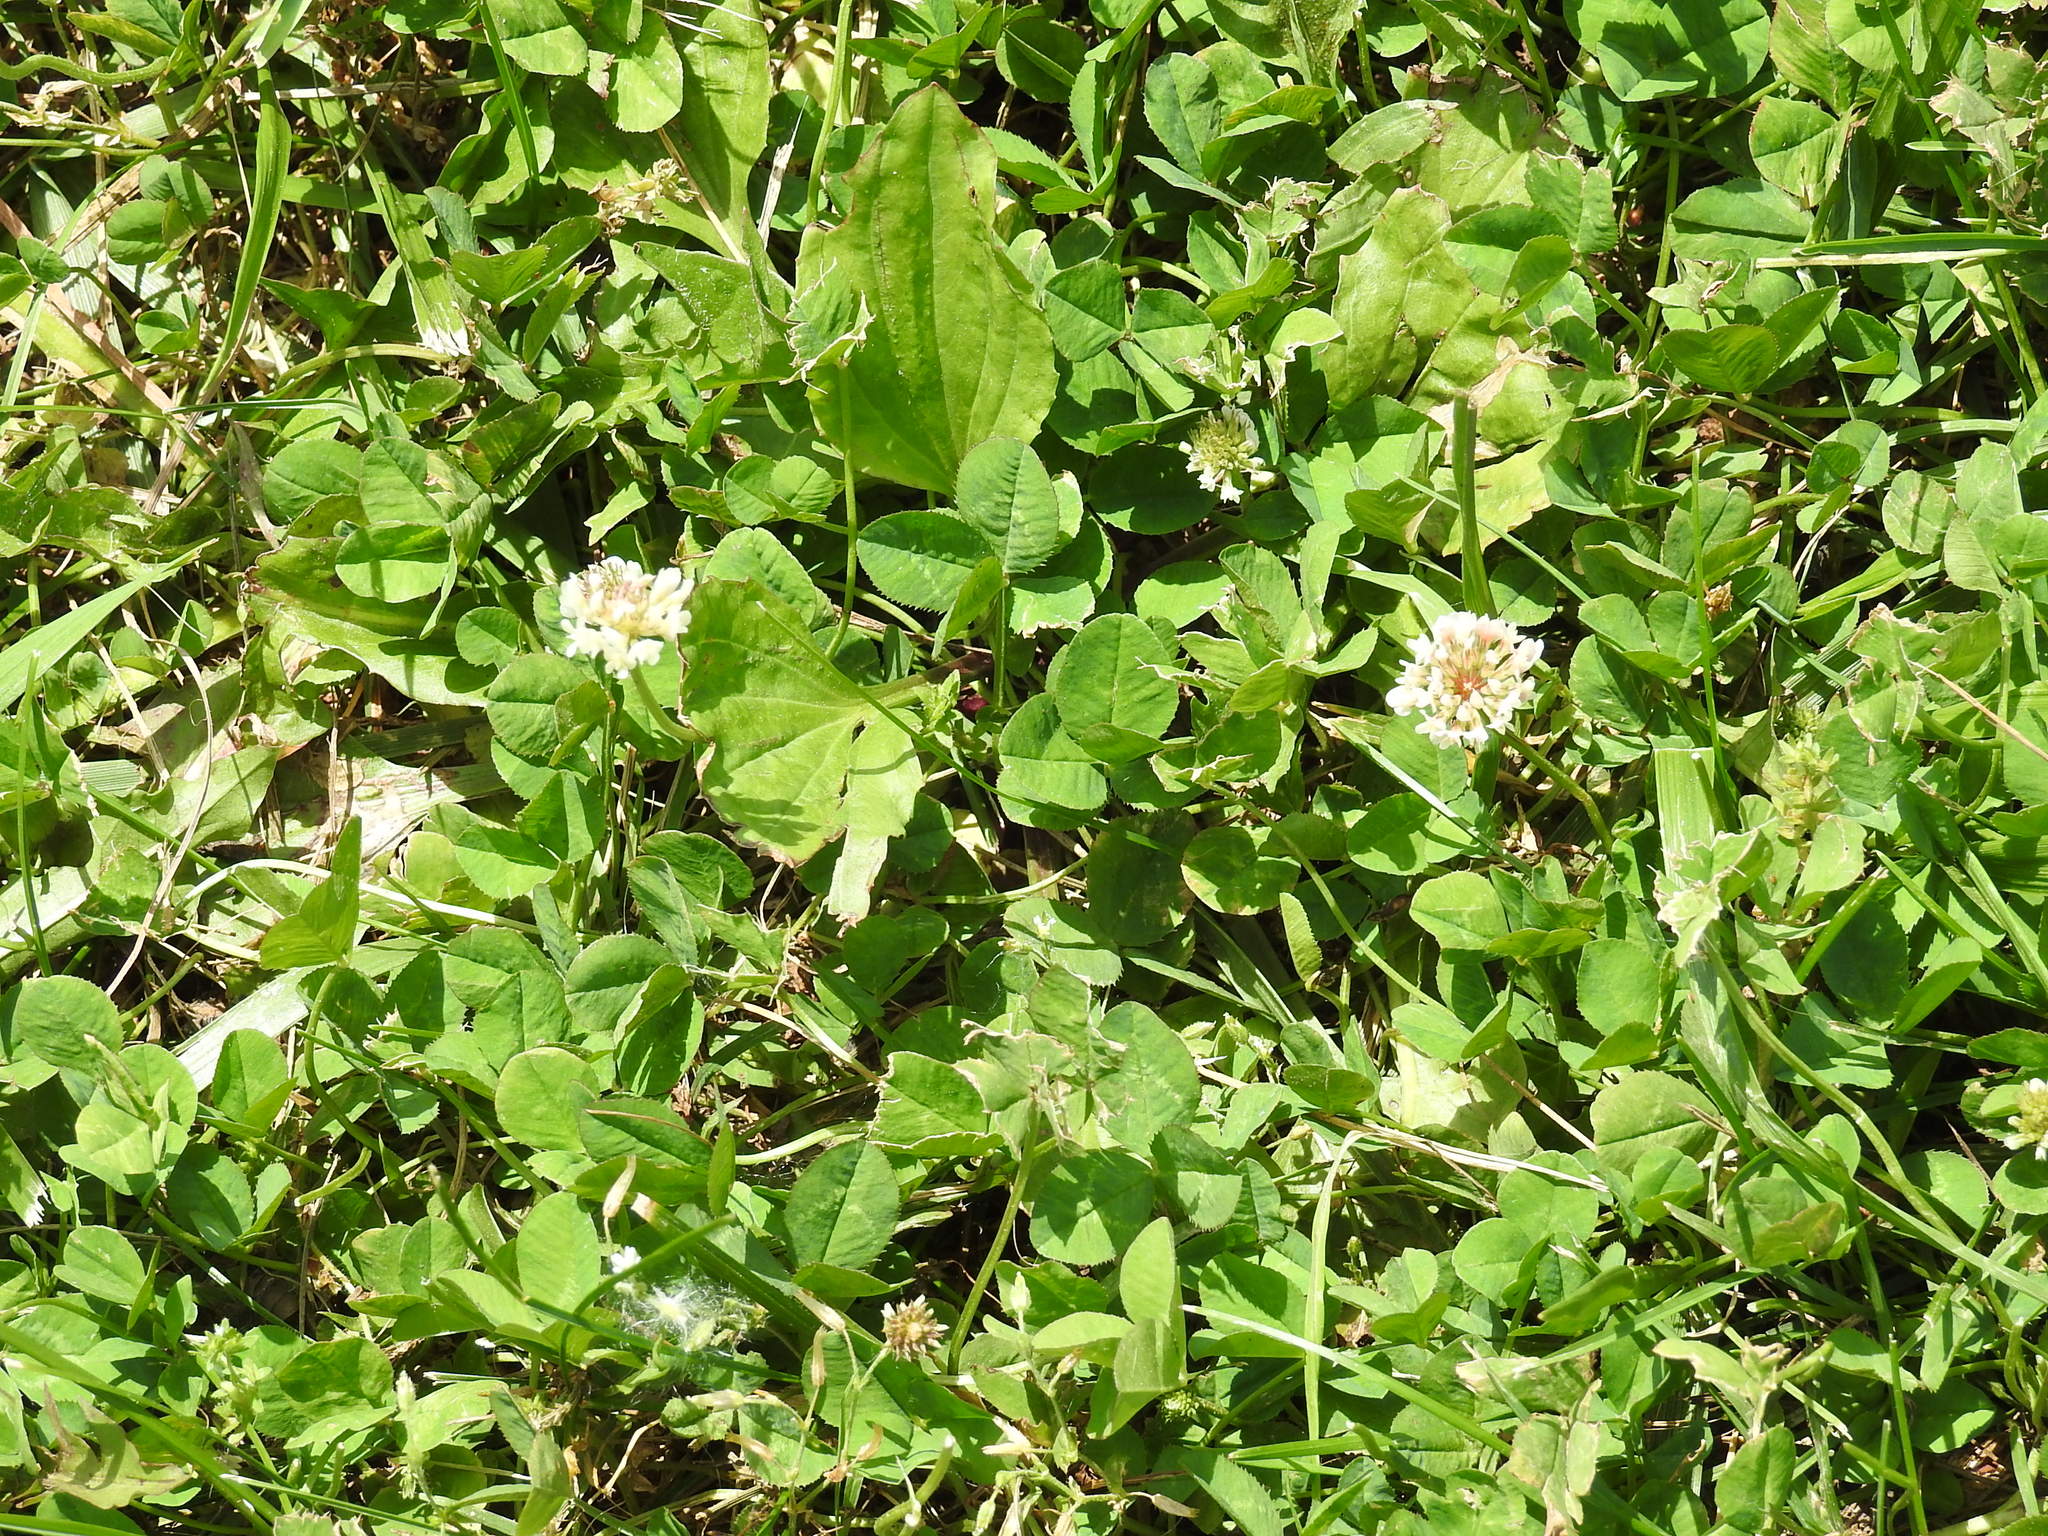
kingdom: Plantae
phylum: Tracheophyta
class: Magnoliopsida
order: Fabales
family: Fabaceae
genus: Trifolium
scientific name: Trifolium repens
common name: White clover
